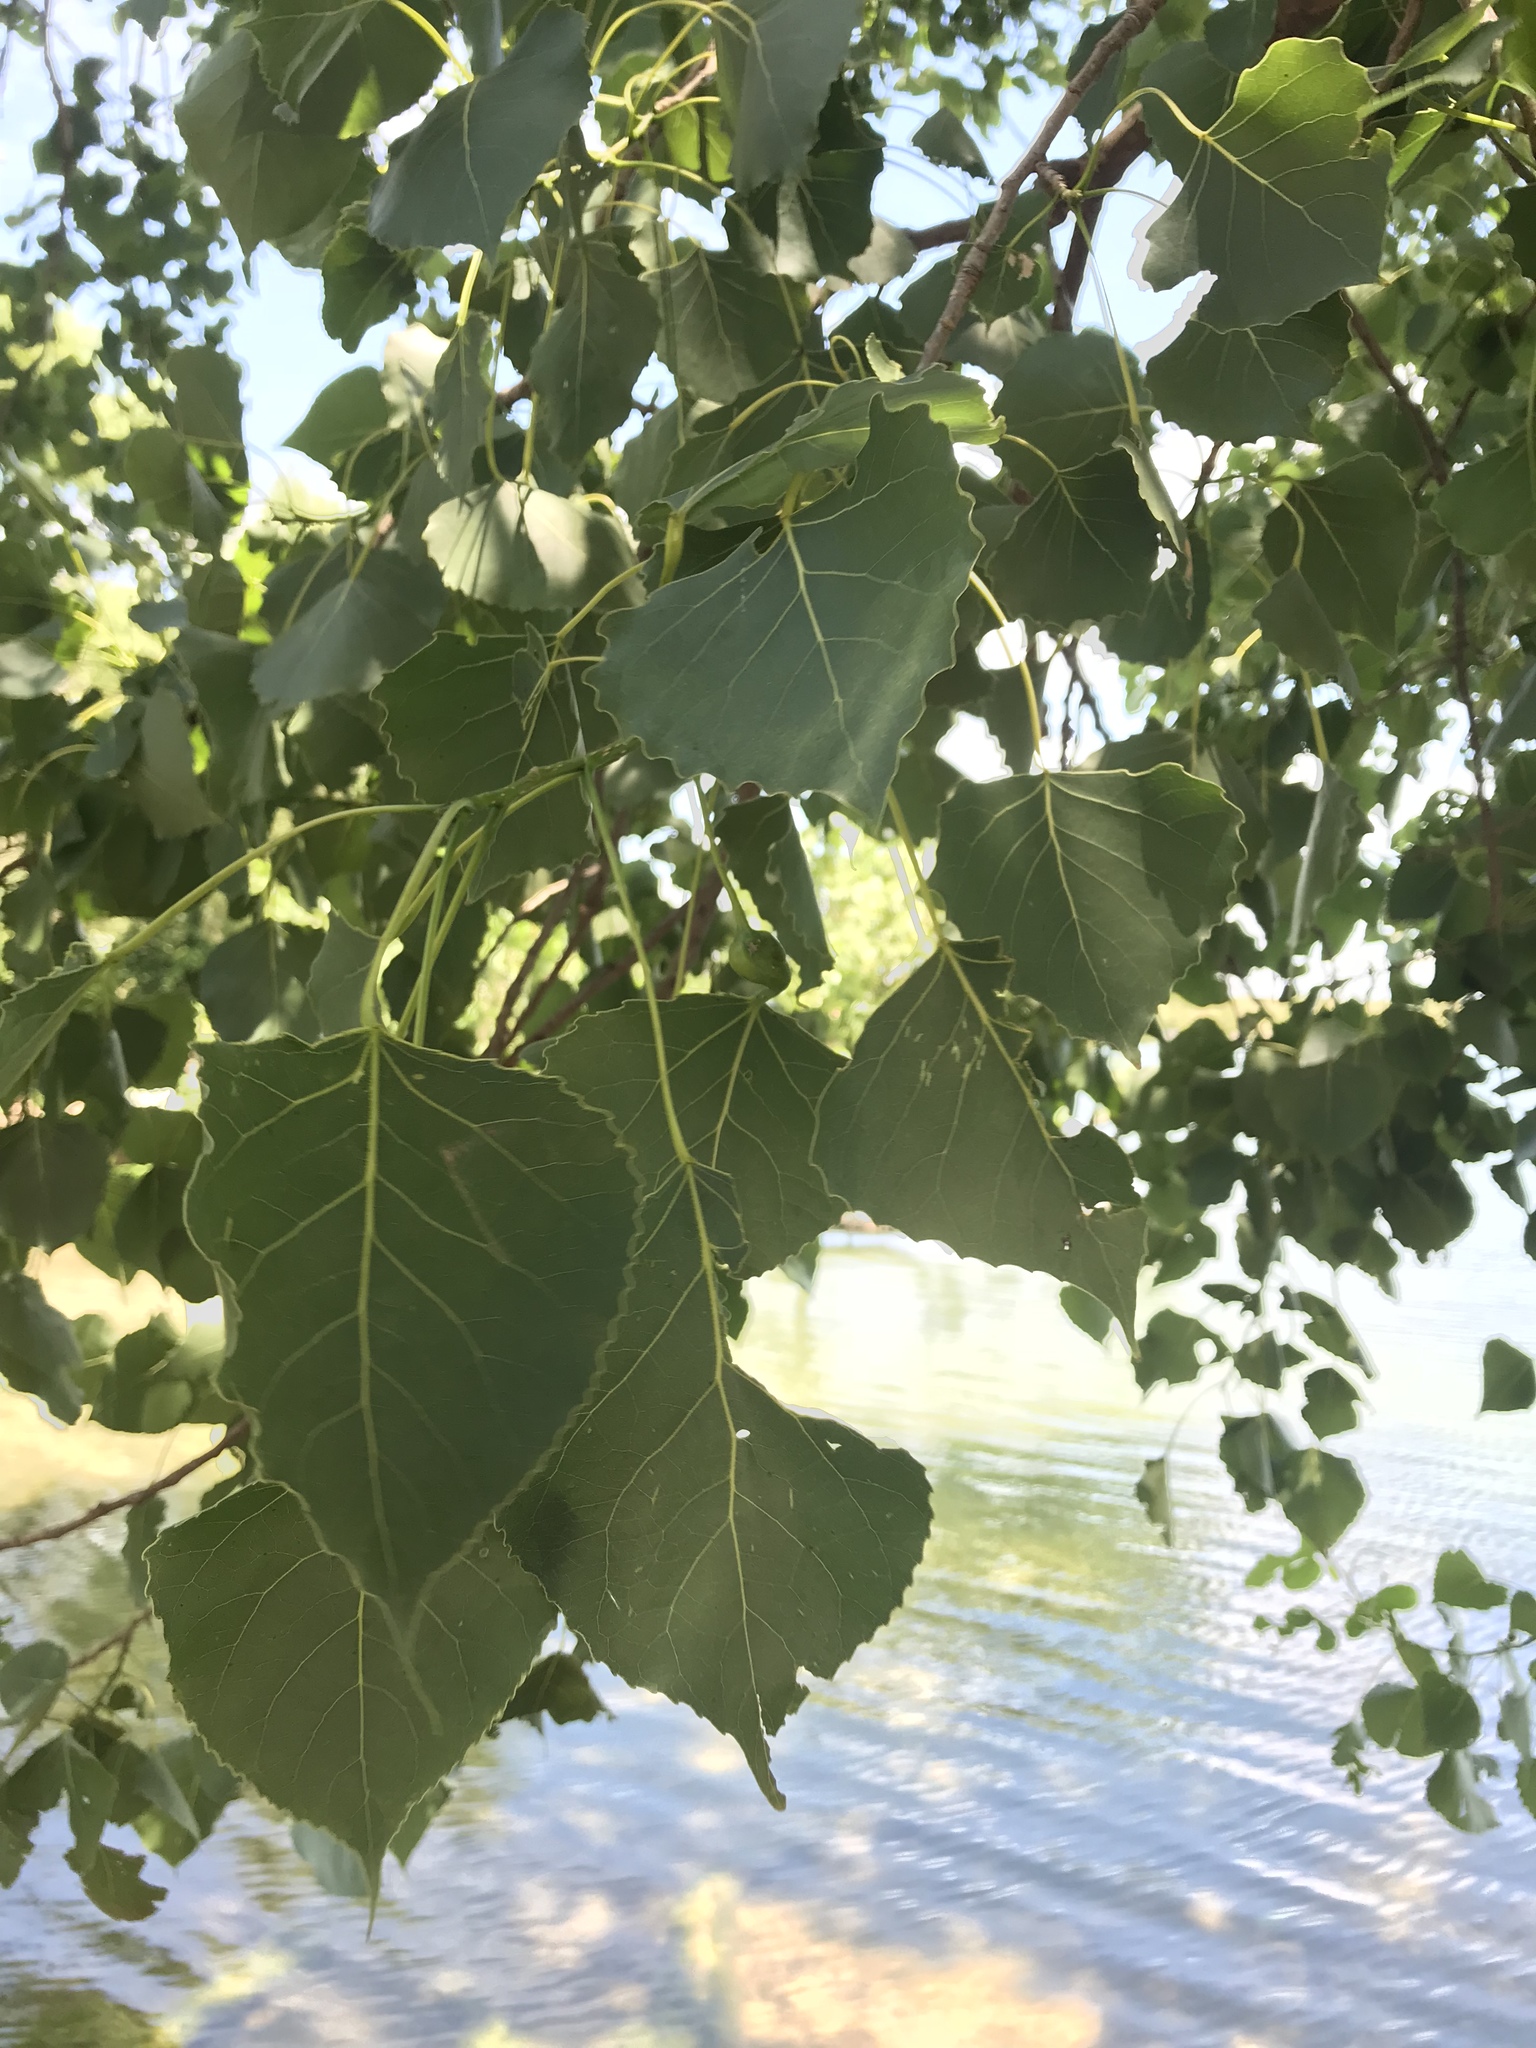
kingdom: Plantae
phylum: Tracheophyta
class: Magnoliopsida
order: Malpighiales
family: Salicaceae
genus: Populus
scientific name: Populus deltoides
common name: Eastern cottonwood
